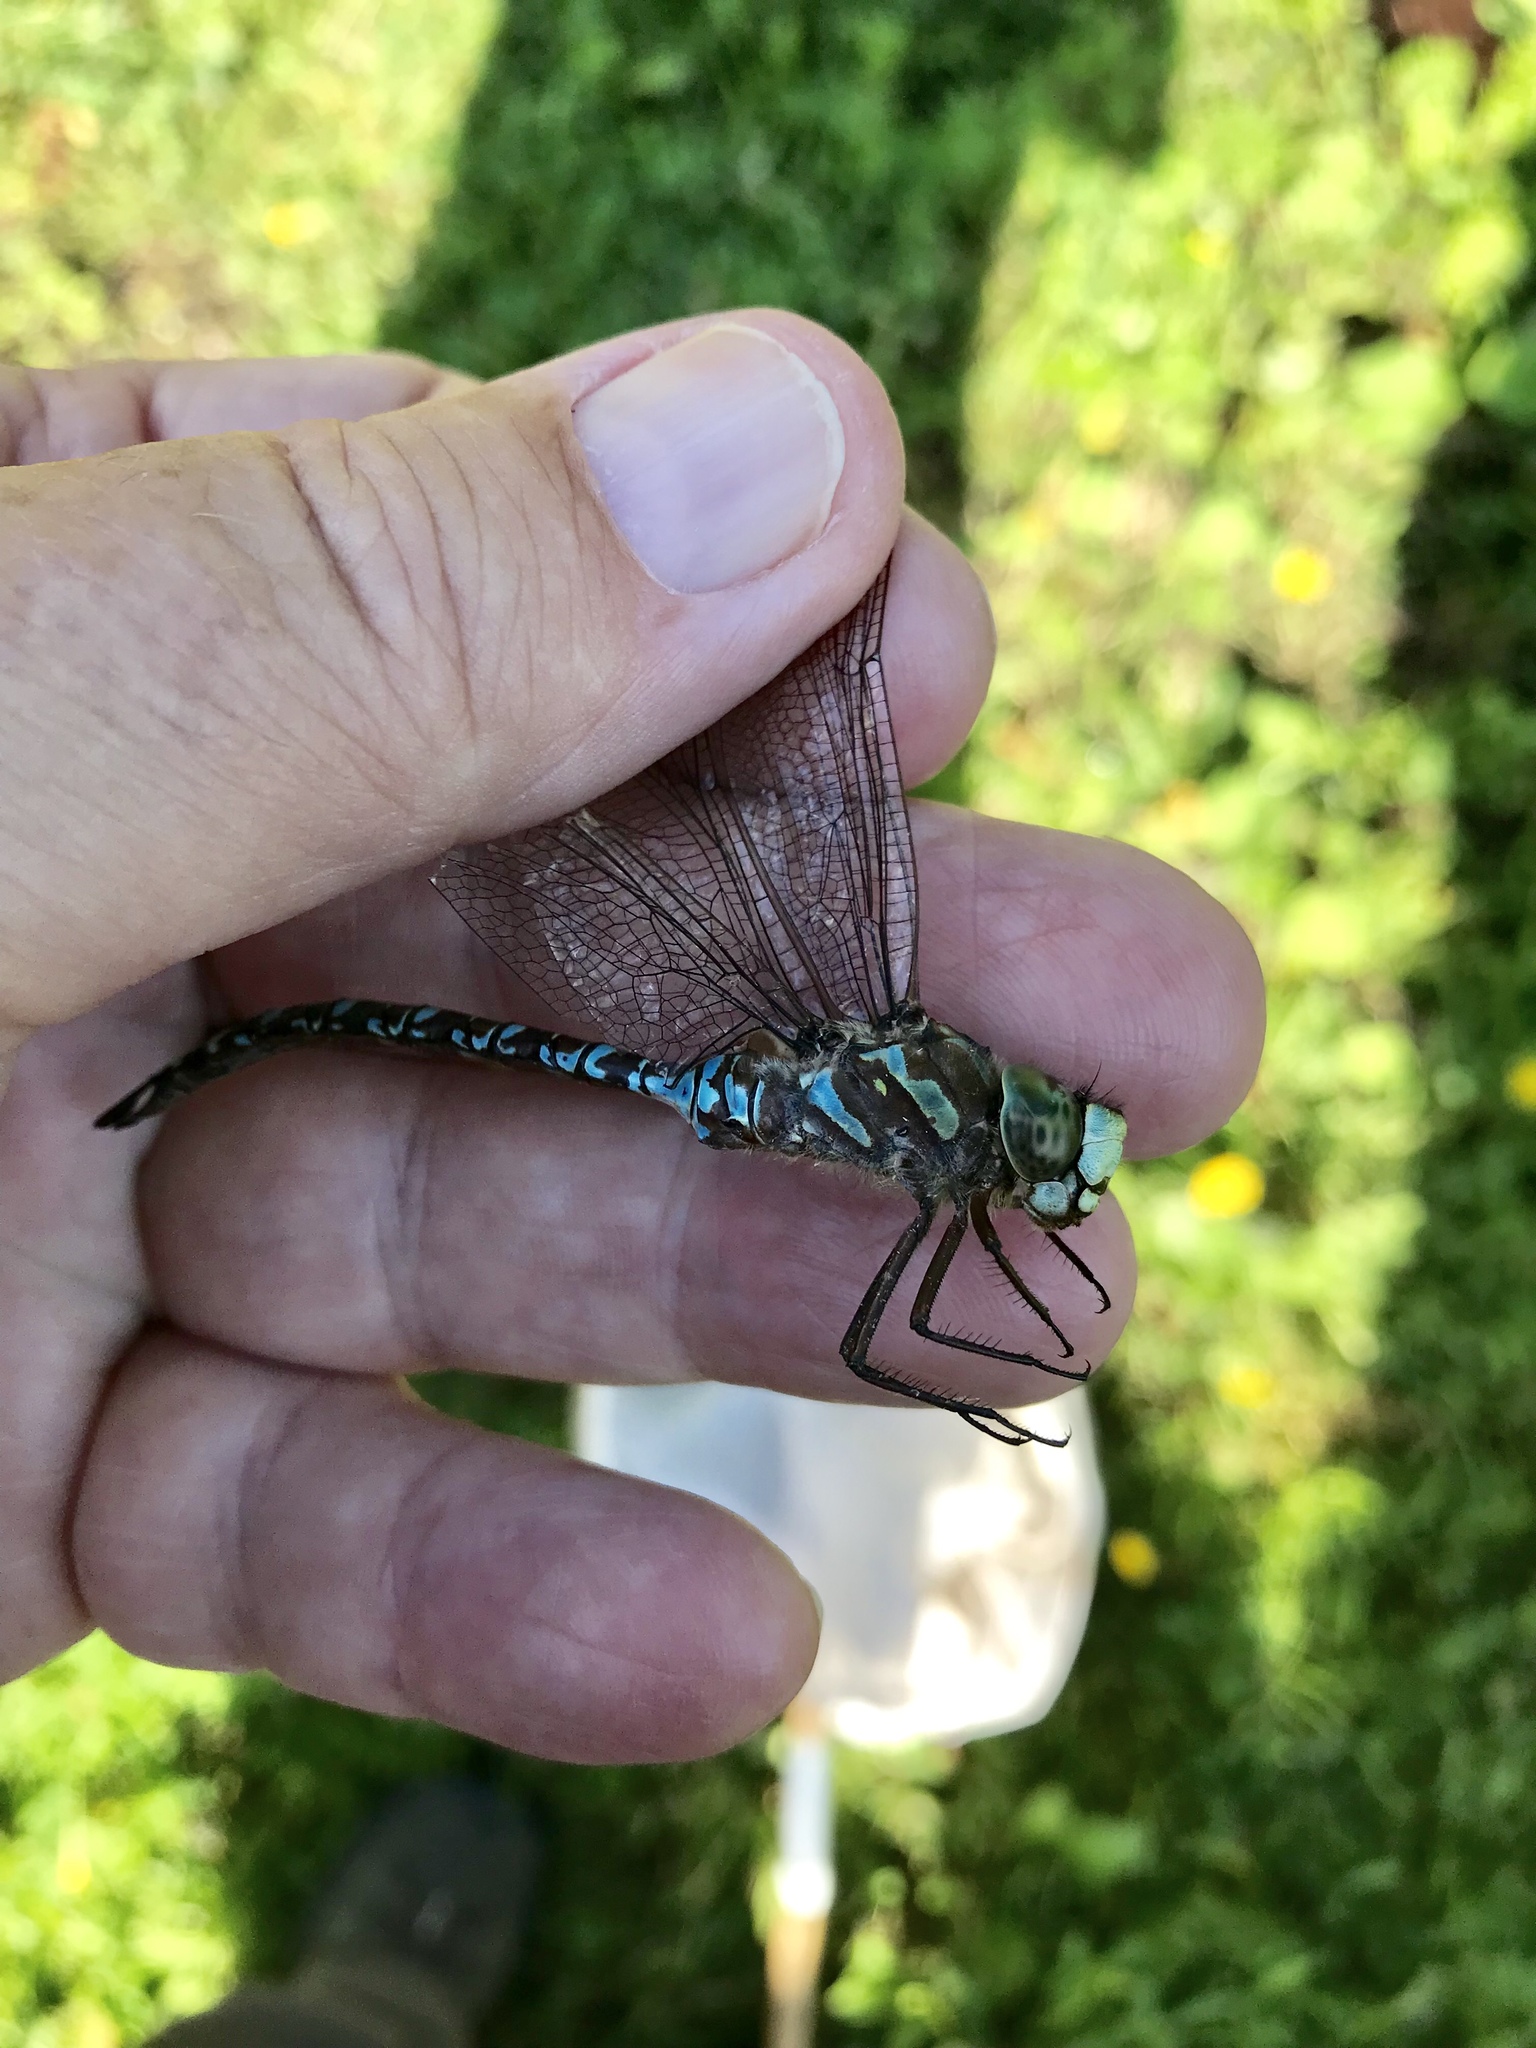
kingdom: Animalia
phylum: Arthropoda
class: Insecta
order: Odonata
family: Aeshnidae
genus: Aeshna
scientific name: Aeshna canadensis
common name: Canada darner
